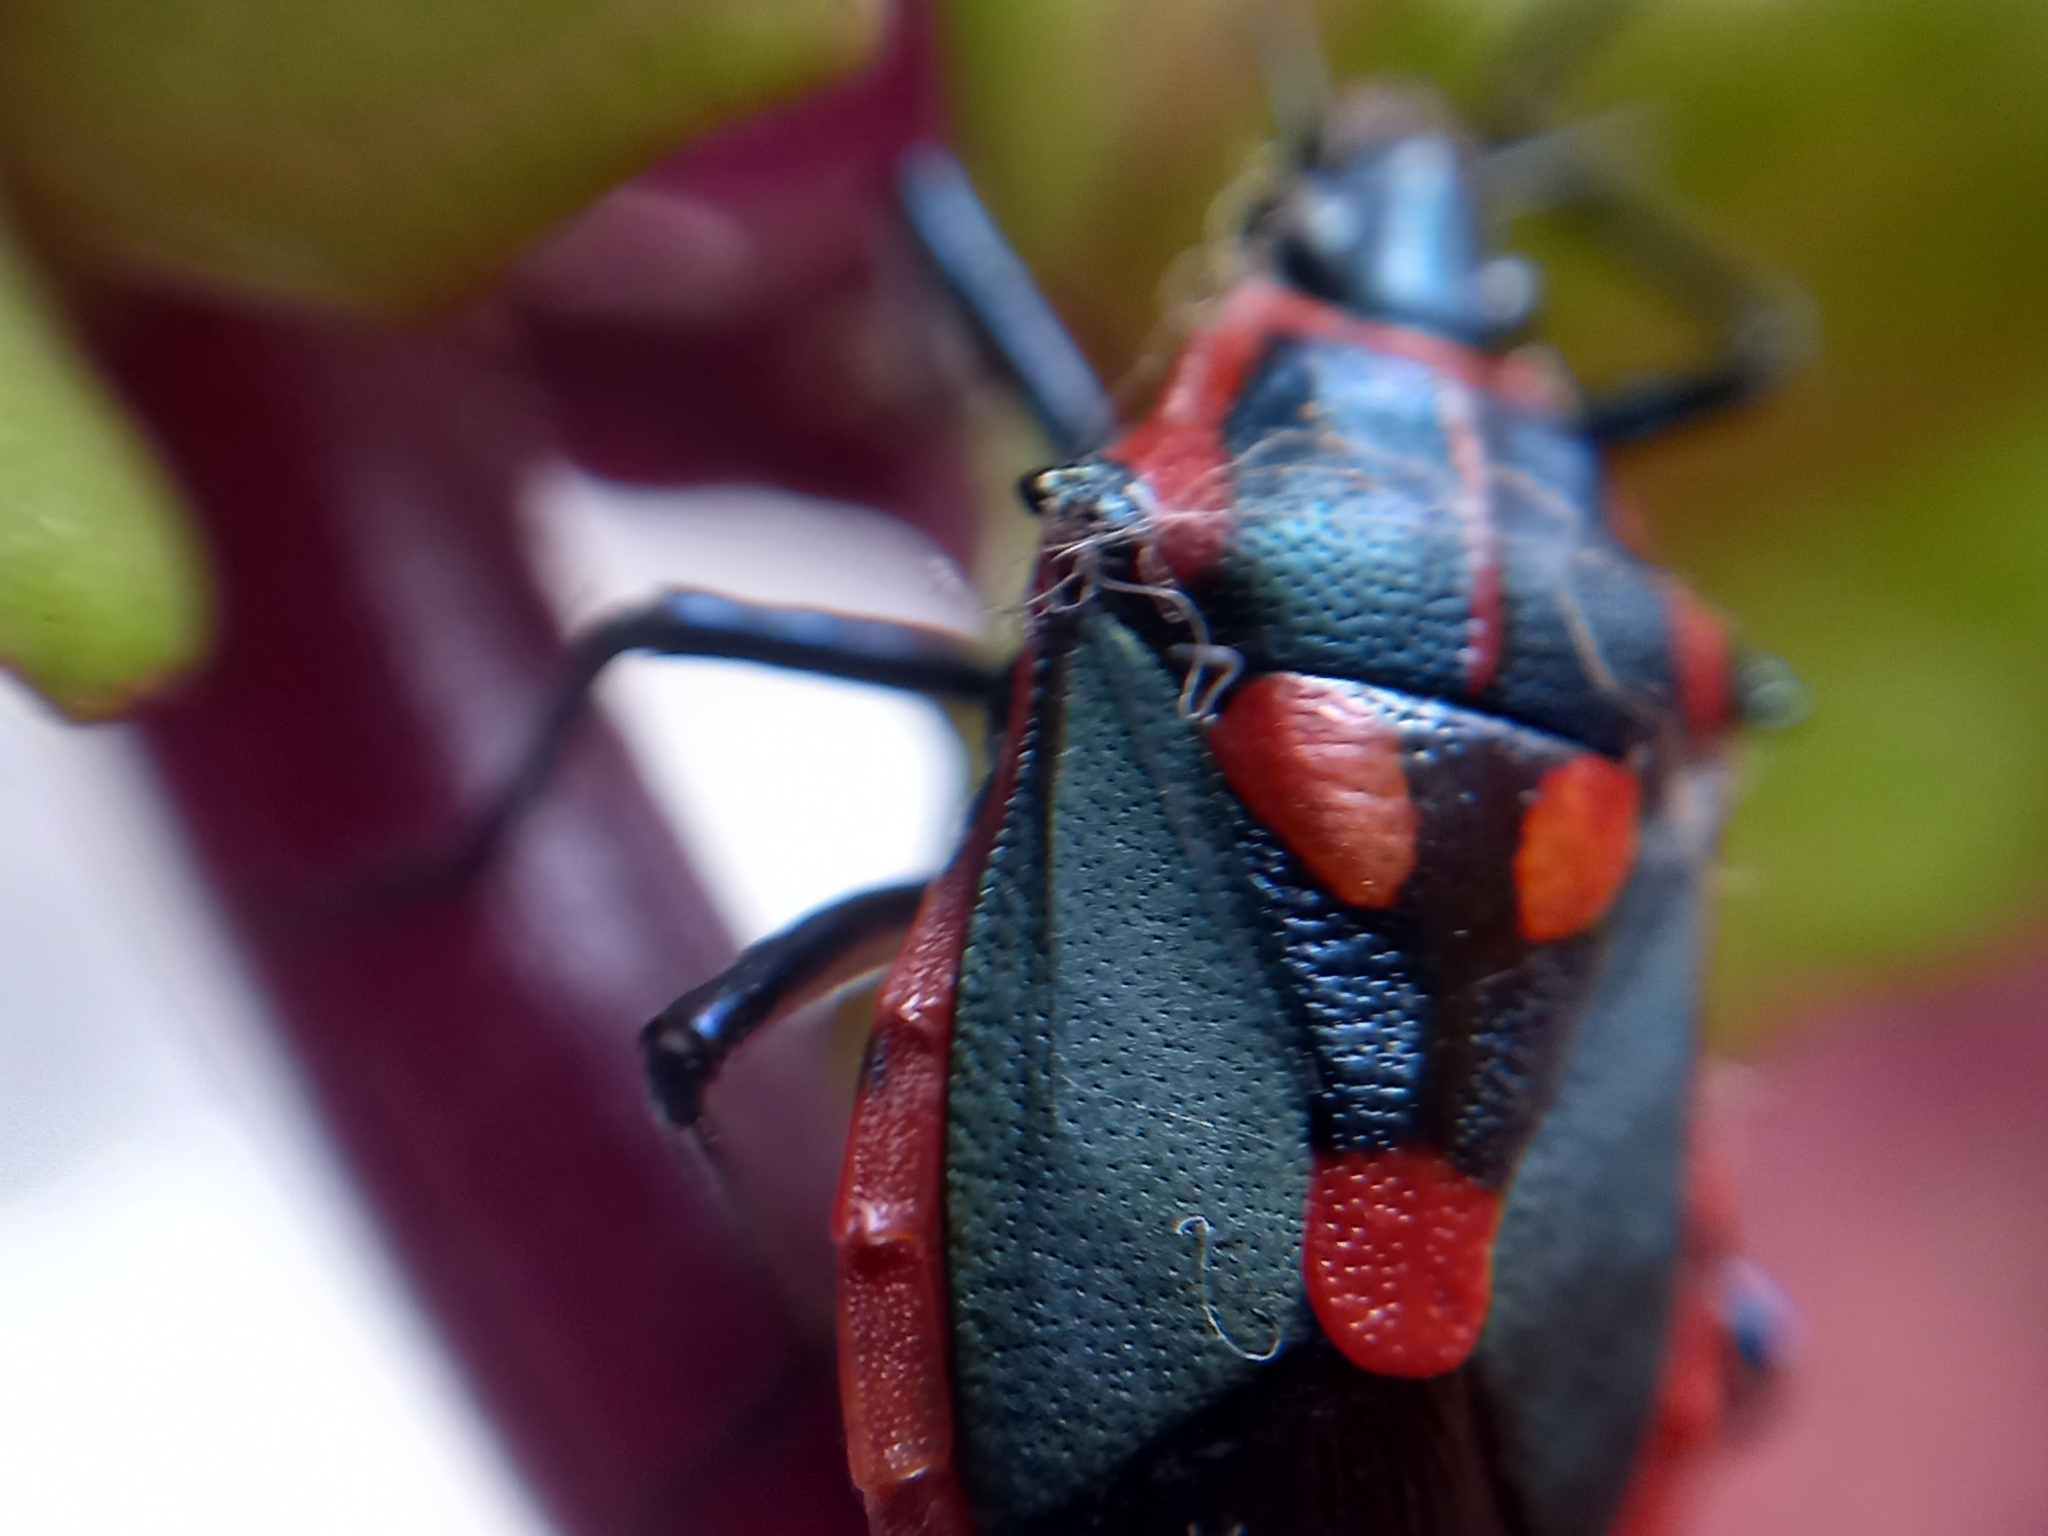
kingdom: Animalia
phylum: Arthropoda
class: Insecta
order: Hemiptera
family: Pentatomidae
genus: Euthyrhynchus
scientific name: Euthyrhynchus floridanus
